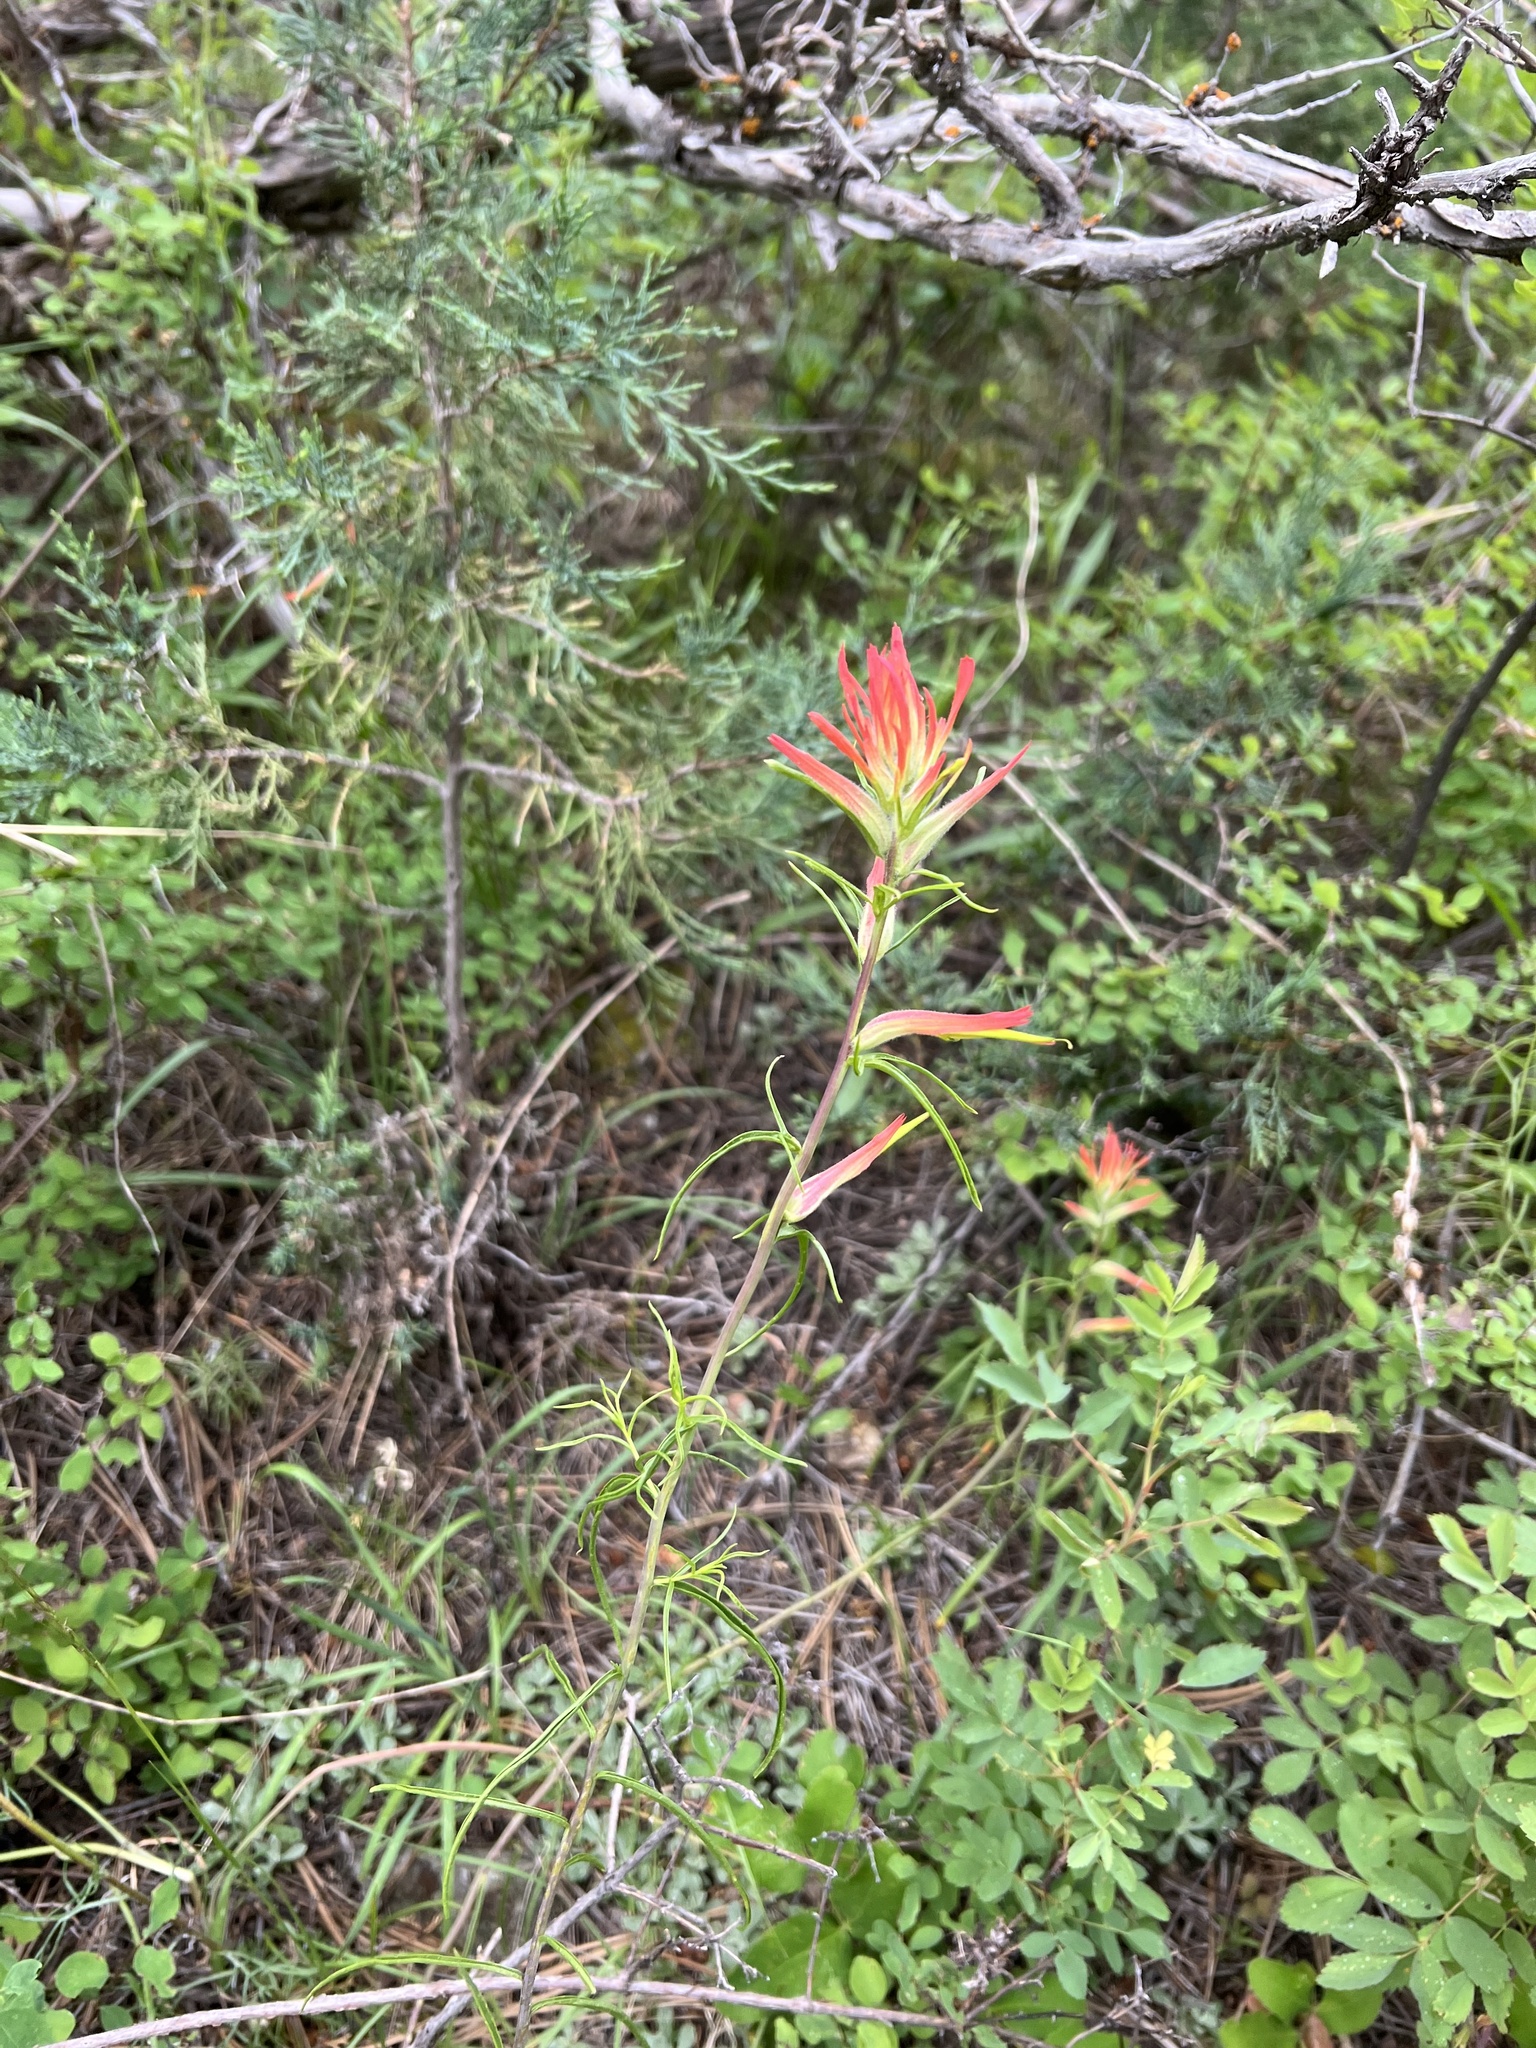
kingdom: Plantae
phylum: Tracheophyta
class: Magnoliopsida
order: Lamiales
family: Orobanchaceae
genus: Castilleja
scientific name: Castilleja linariifolia
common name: Wyoming paintbrush
